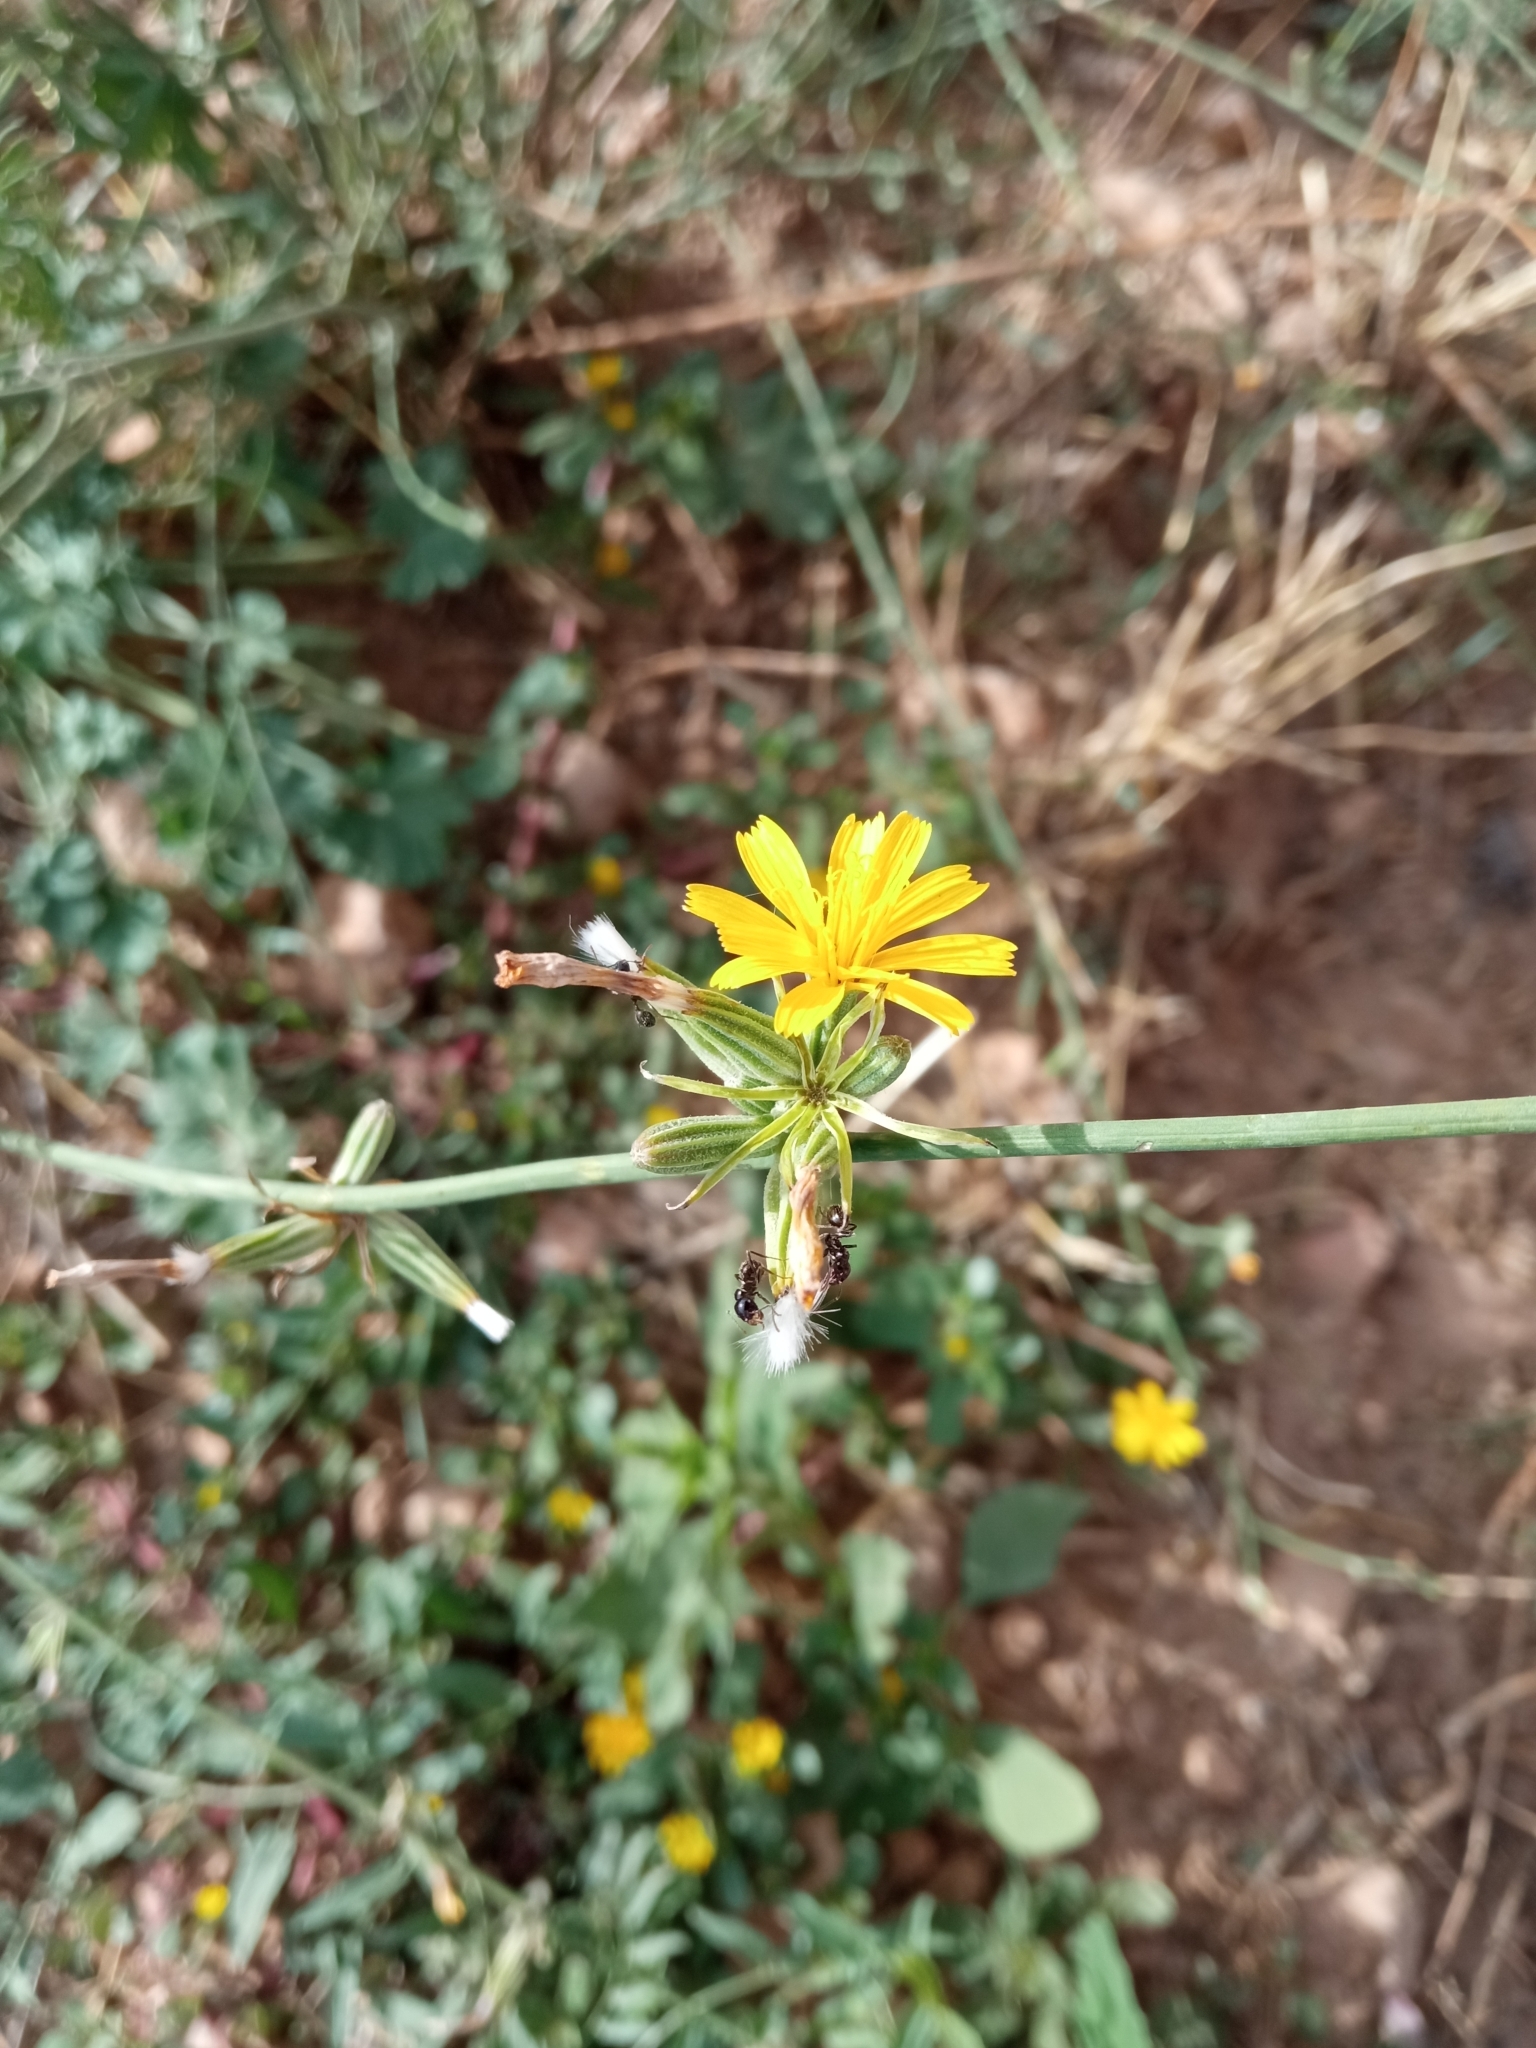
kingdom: Plantae
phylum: Tracheophyta
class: Magnoliopsida
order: Asterales
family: Asteraceae
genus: Chondrilla
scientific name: Chondrilla juncea
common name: Skeleton weed
